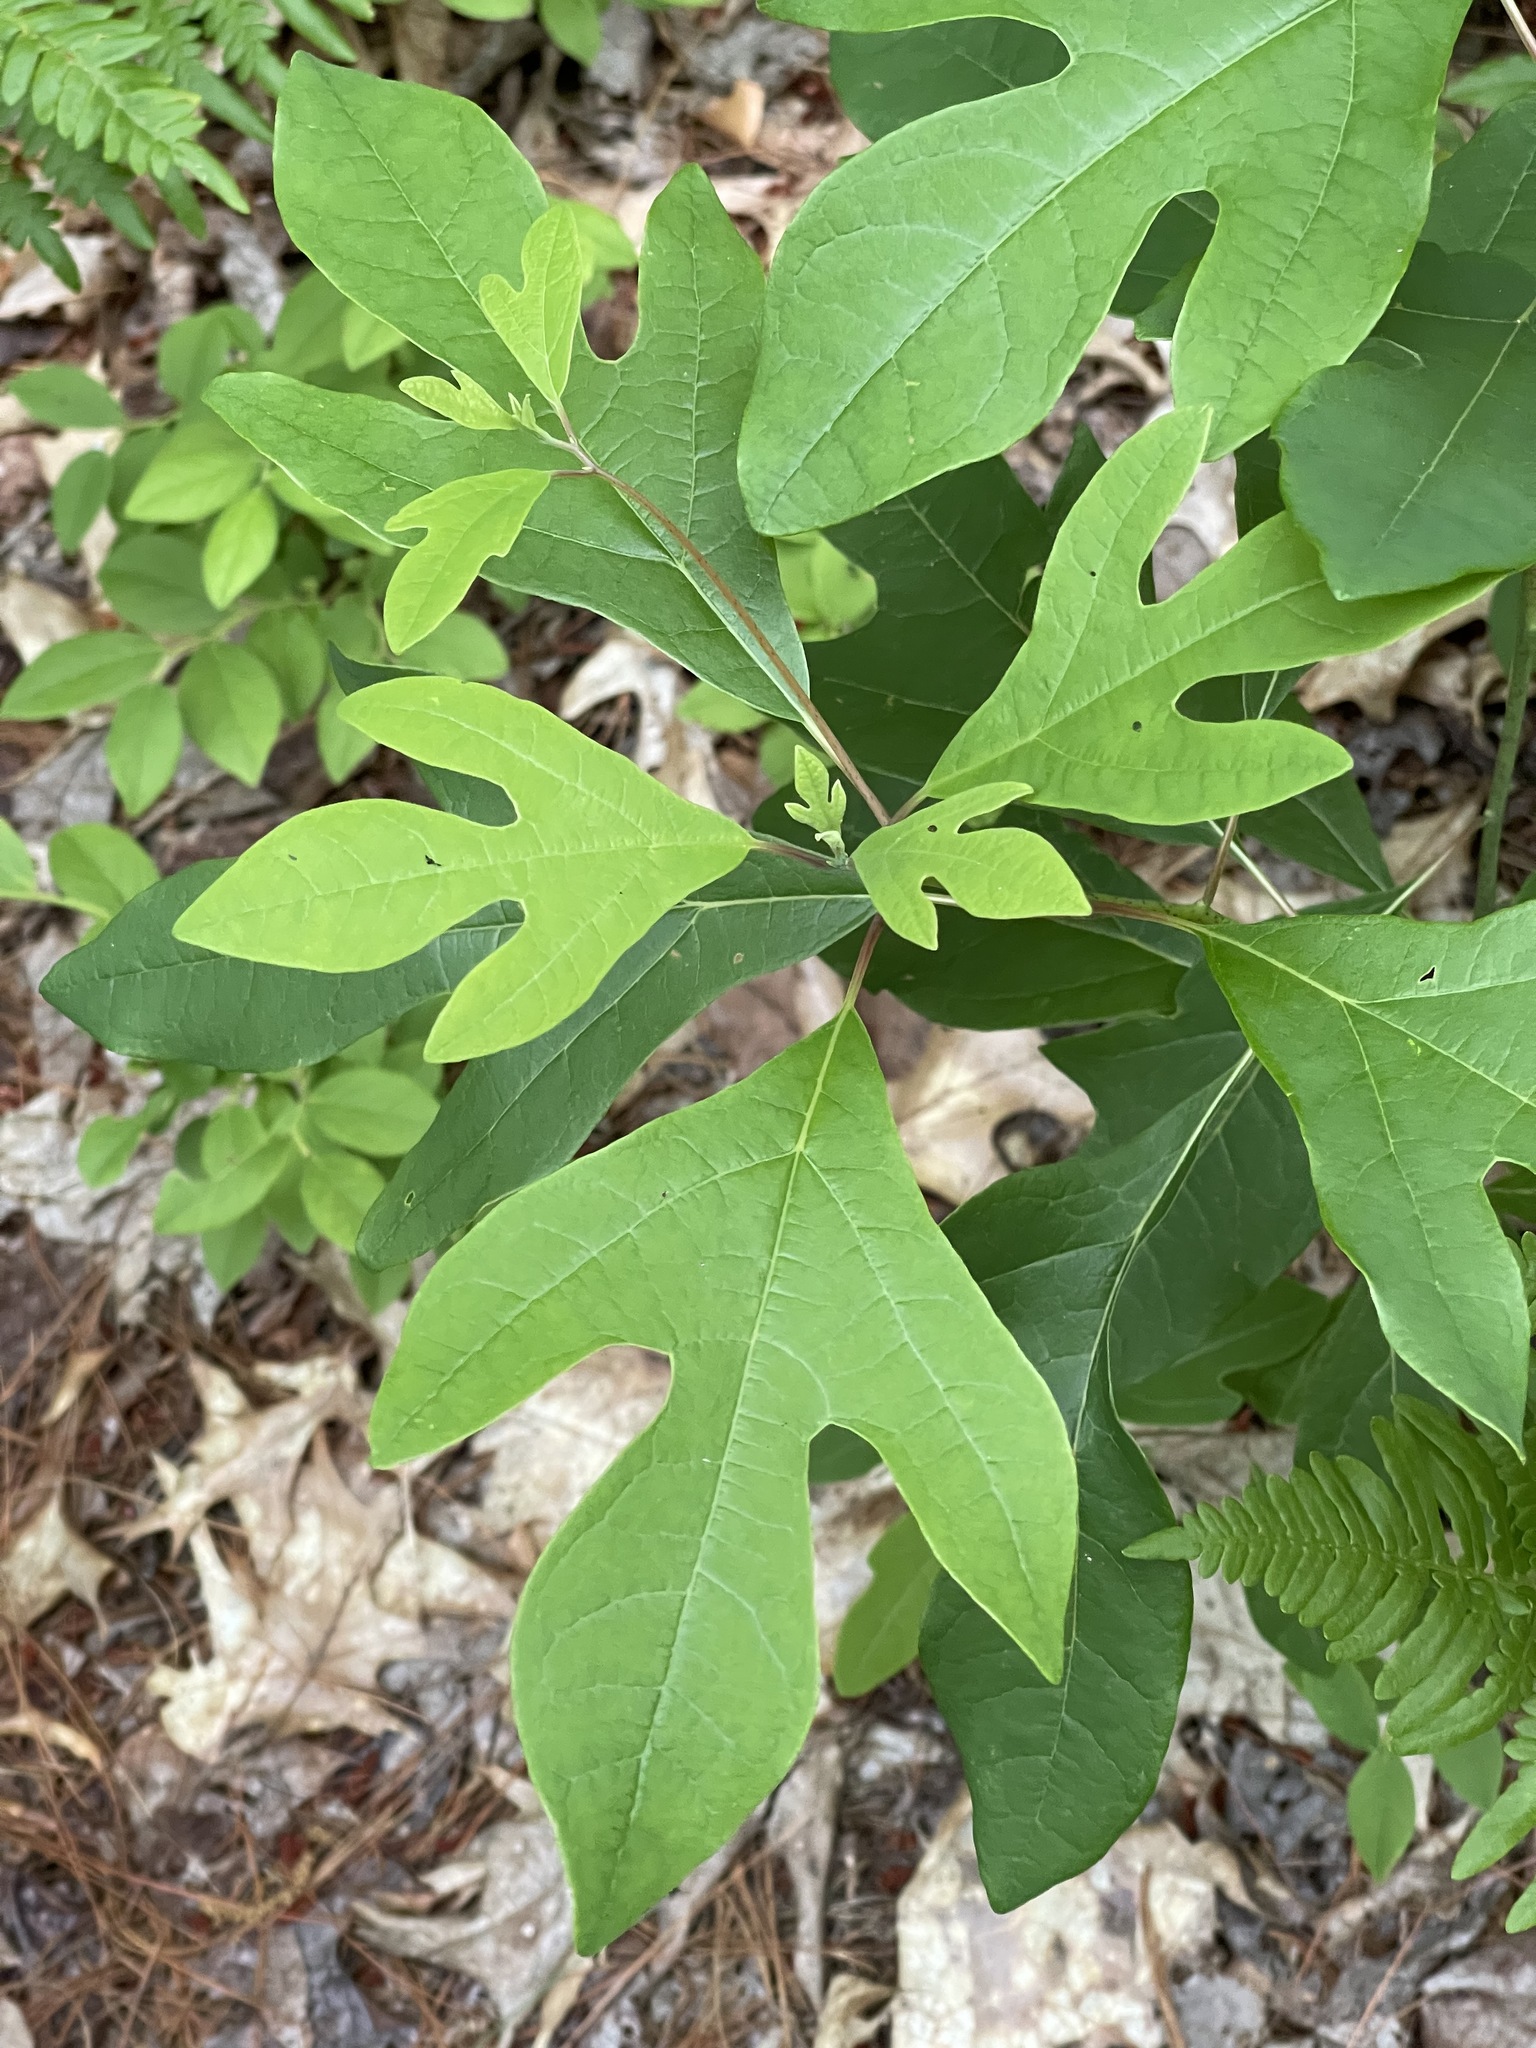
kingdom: Plantae
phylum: Tracheophyta
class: Magnoliopsida
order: Laurales
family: Lauraceae
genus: Sassafras
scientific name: Sassafras albidum
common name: Sassafras
